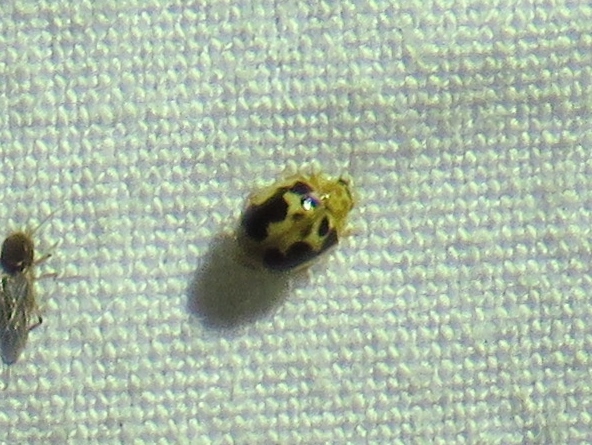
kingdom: Animalia
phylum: Arthropoda
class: Insecta
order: Coleoptera
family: Coccinellidae
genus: Psyllobora
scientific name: Psyllobora renifer
